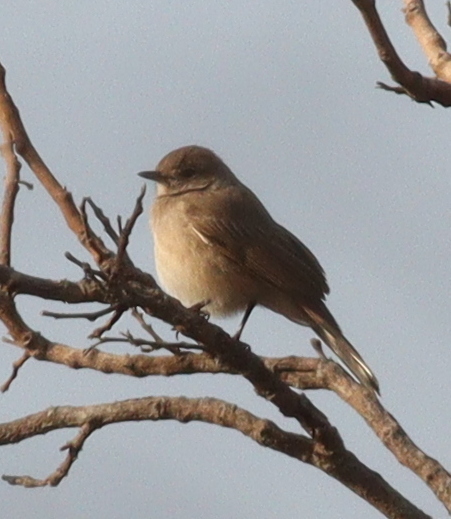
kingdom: Animalia
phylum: Chordata
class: Aves
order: Passeriformes
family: Muscicapidae
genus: Bradornis
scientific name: Bradornis pallidus
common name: Pale flycatcher
